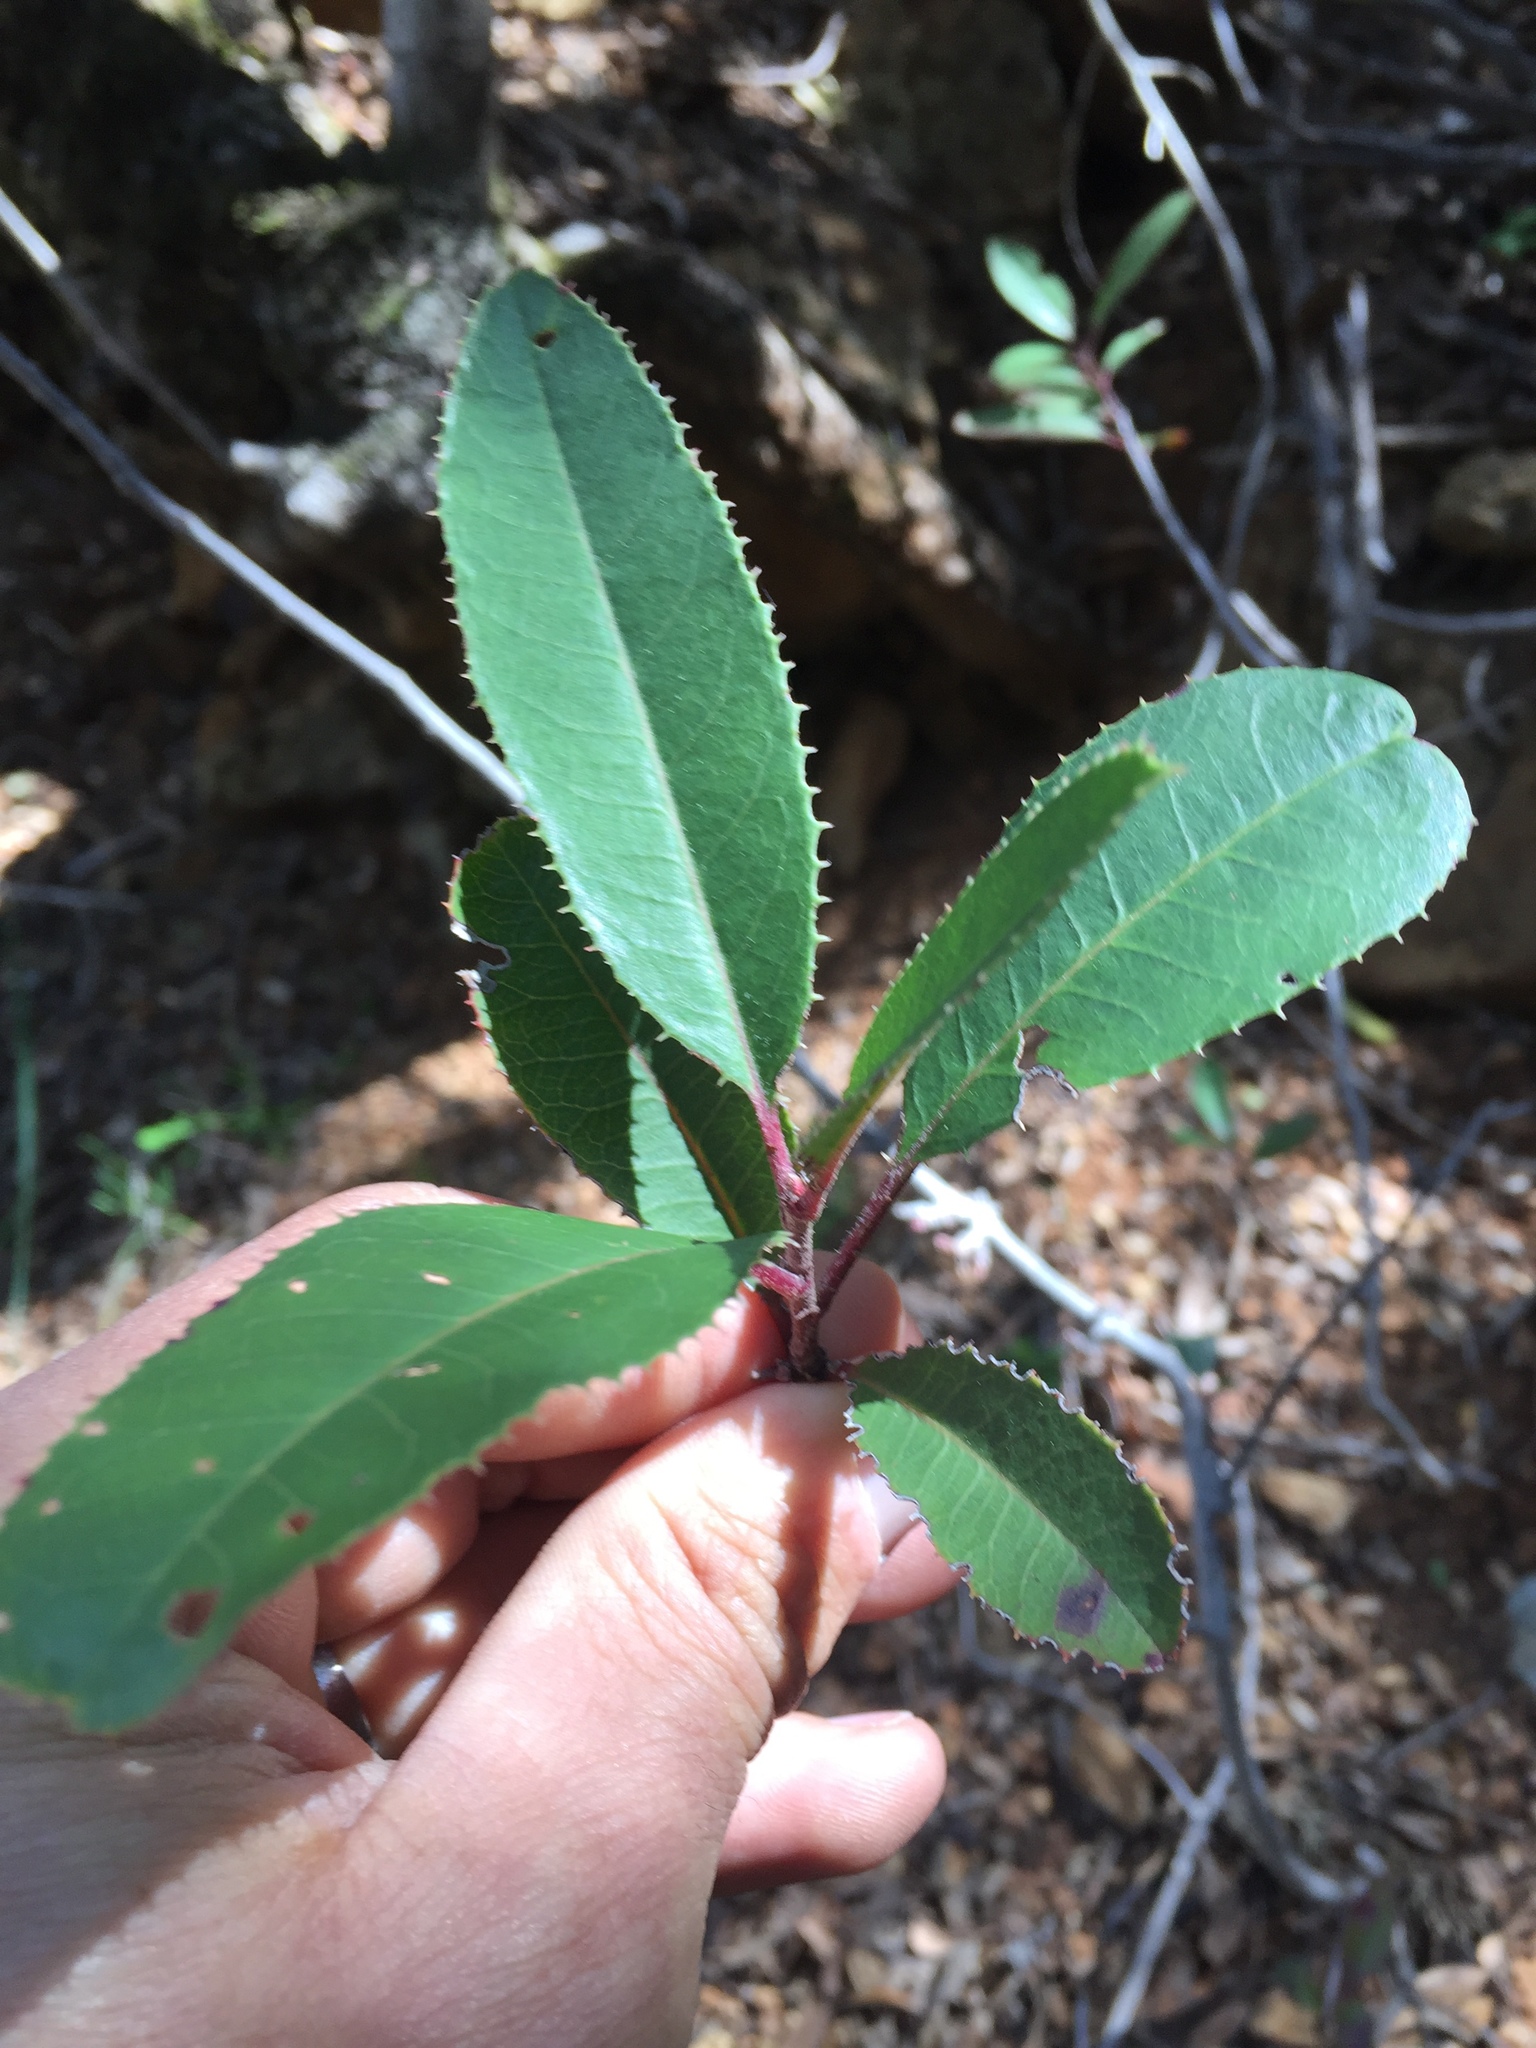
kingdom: Plantae
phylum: Tracheophyta
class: Magnoliopsida
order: Rosales
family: Rosaceae
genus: Heteromeles
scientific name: Heteromeles arbutifolia
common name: California-holly
